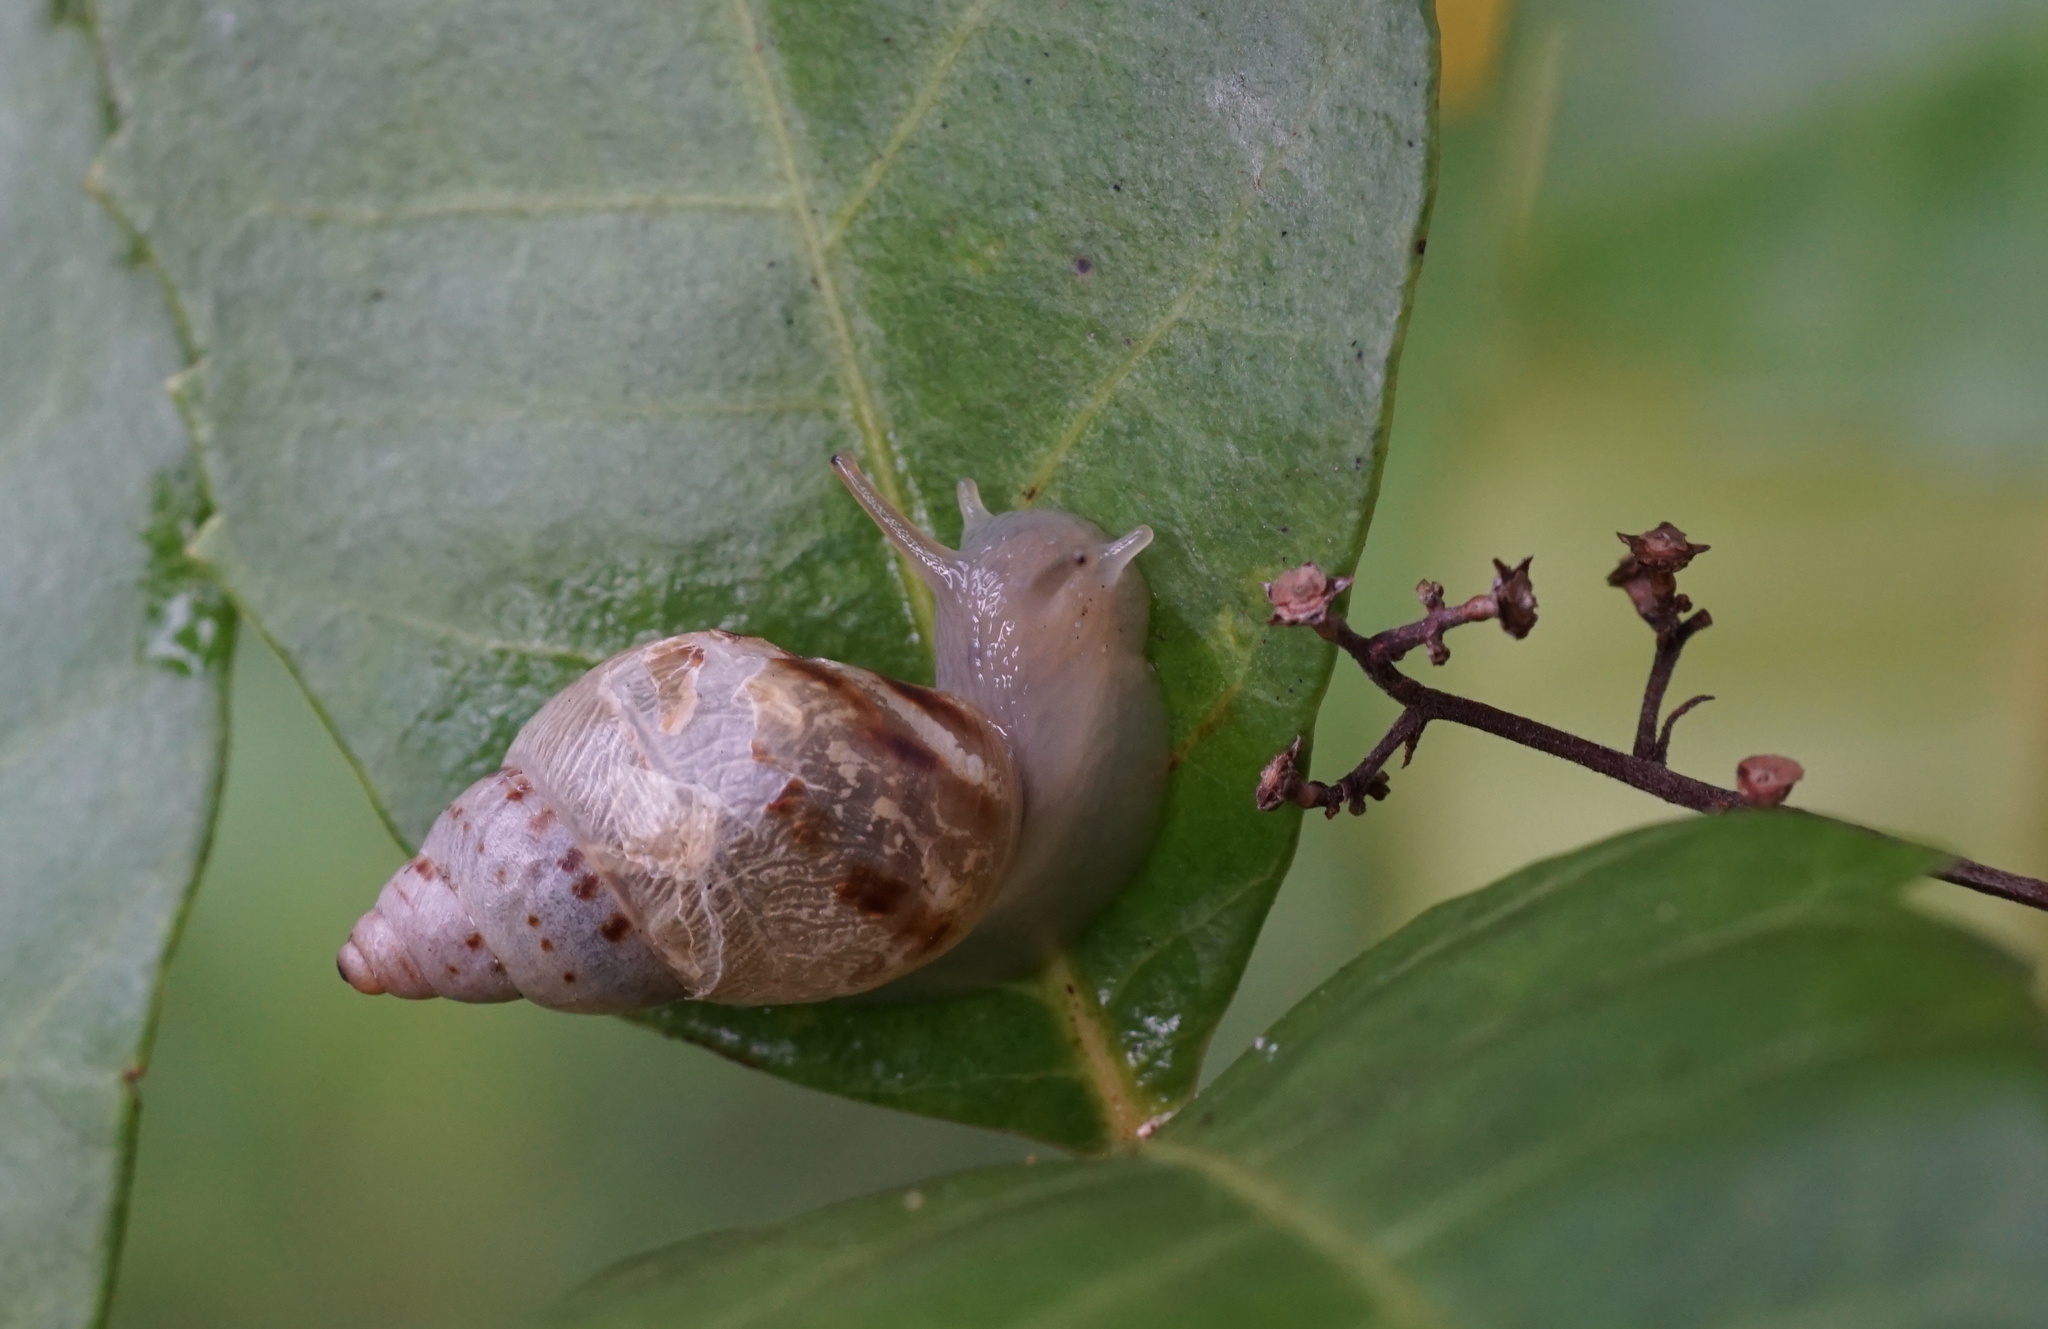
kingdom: Animalia
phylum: Mollusca
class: Gastropoda
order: Stylommatophora
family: Bulimulidae
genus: Drymaeus
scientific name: Drymaeus
